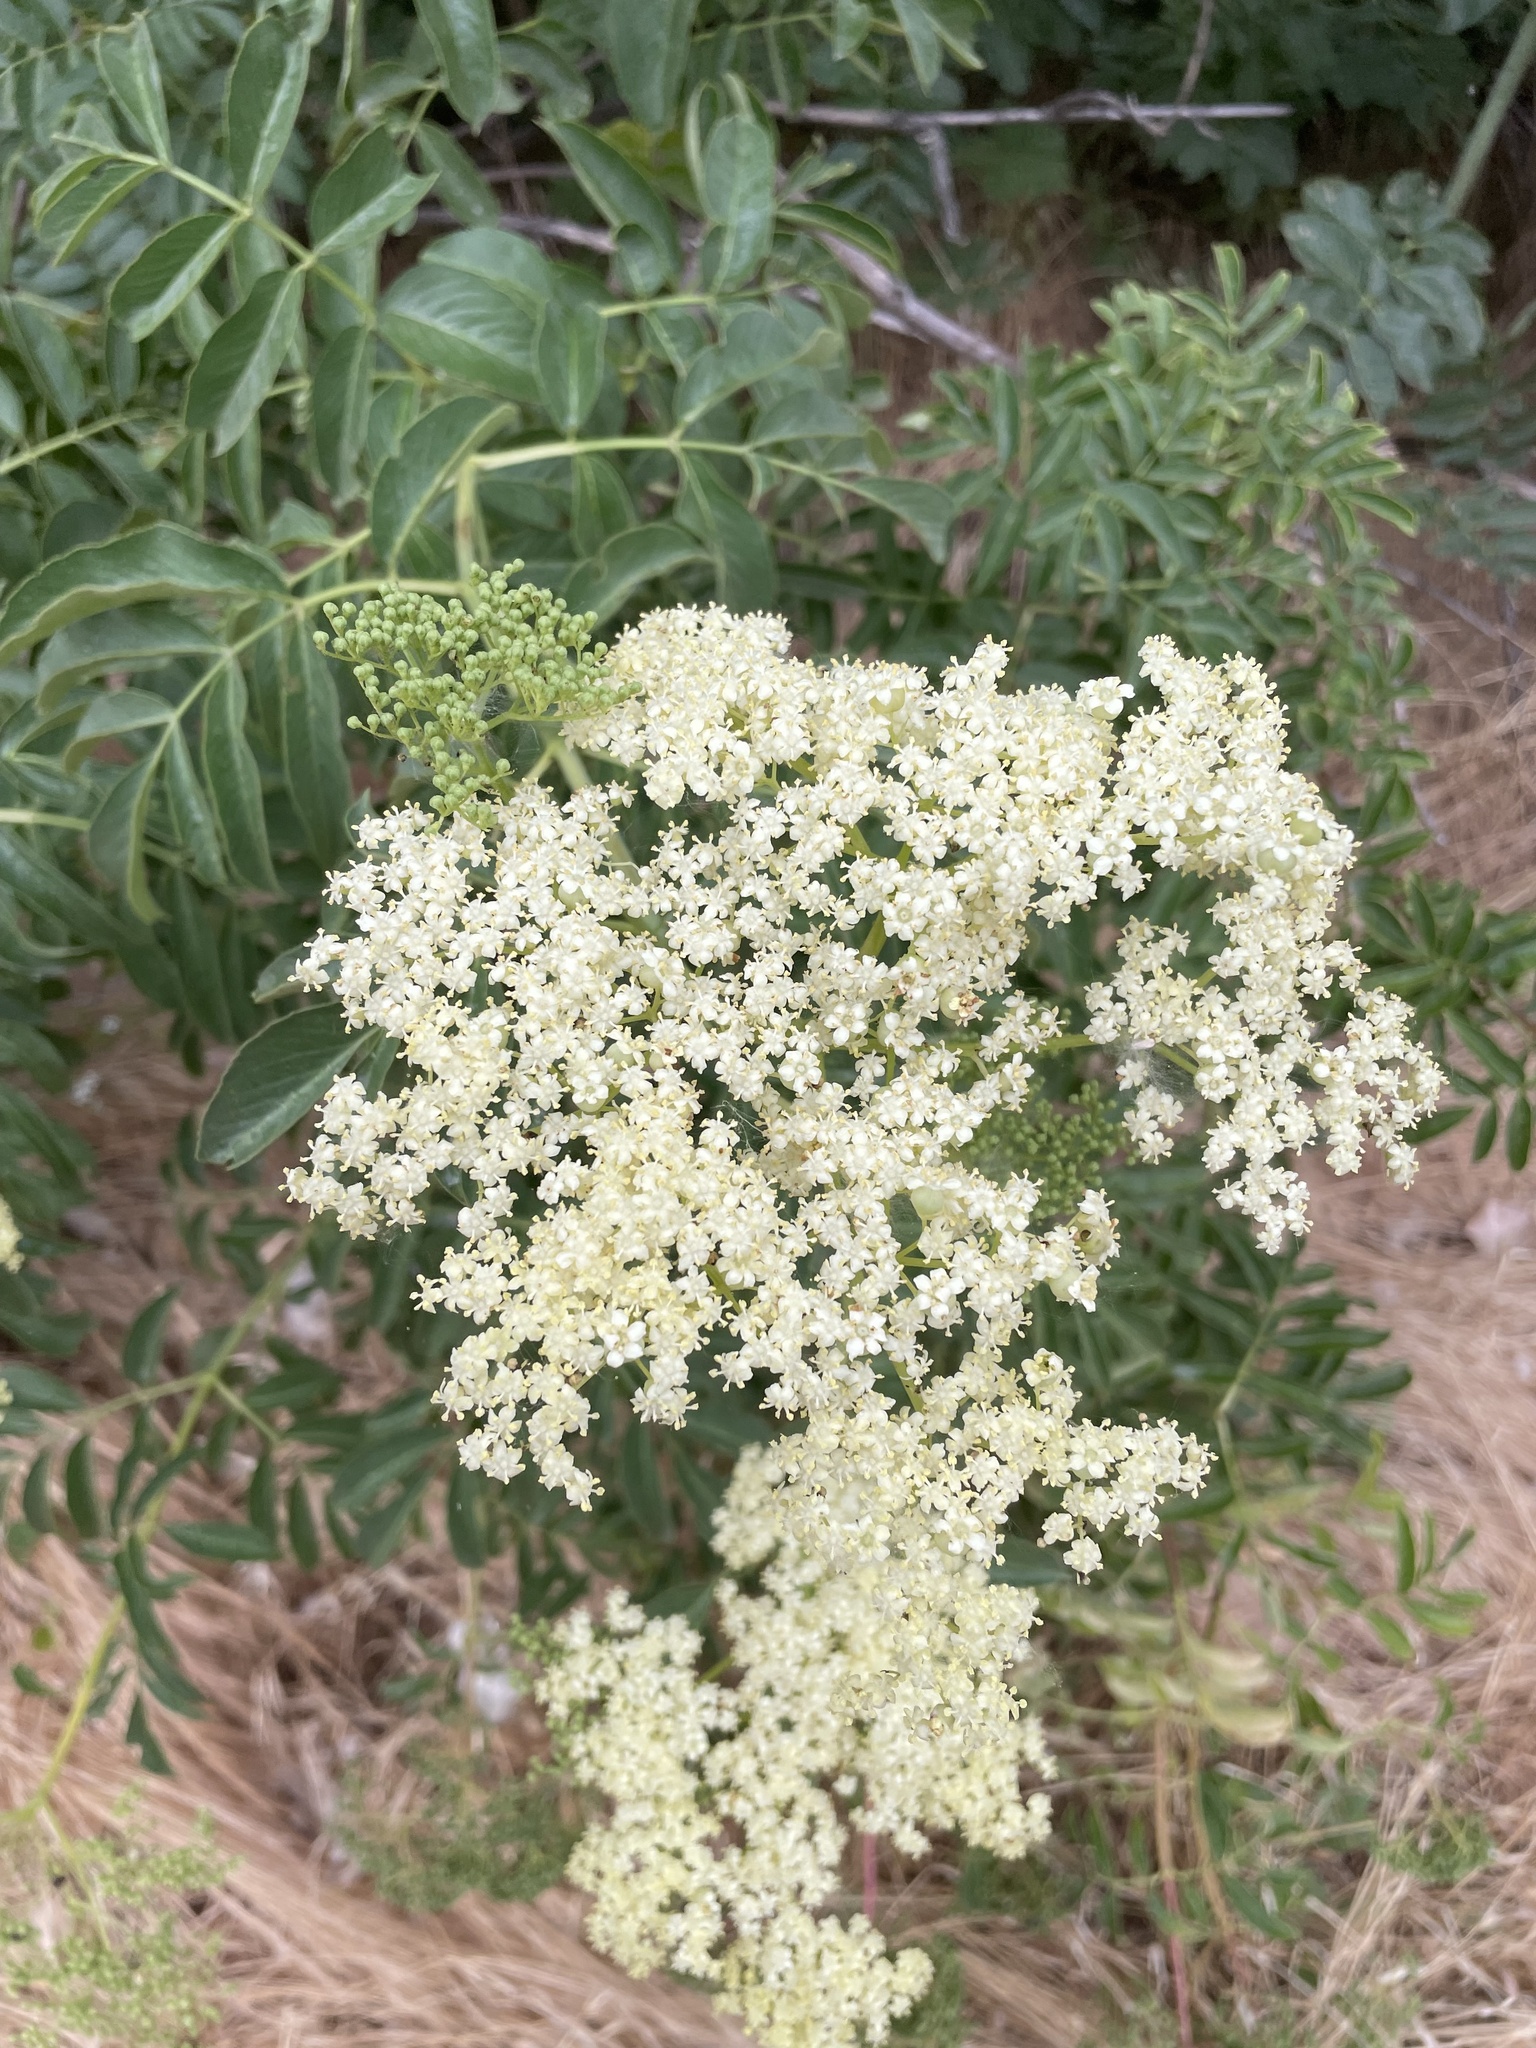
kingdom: Plantae
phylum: Tracheophyta
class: Magnoliopsida
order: Dipsacales
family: Viburnaceae
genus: Sambucus
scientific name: Sambucus cerulea
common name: Blue elder
